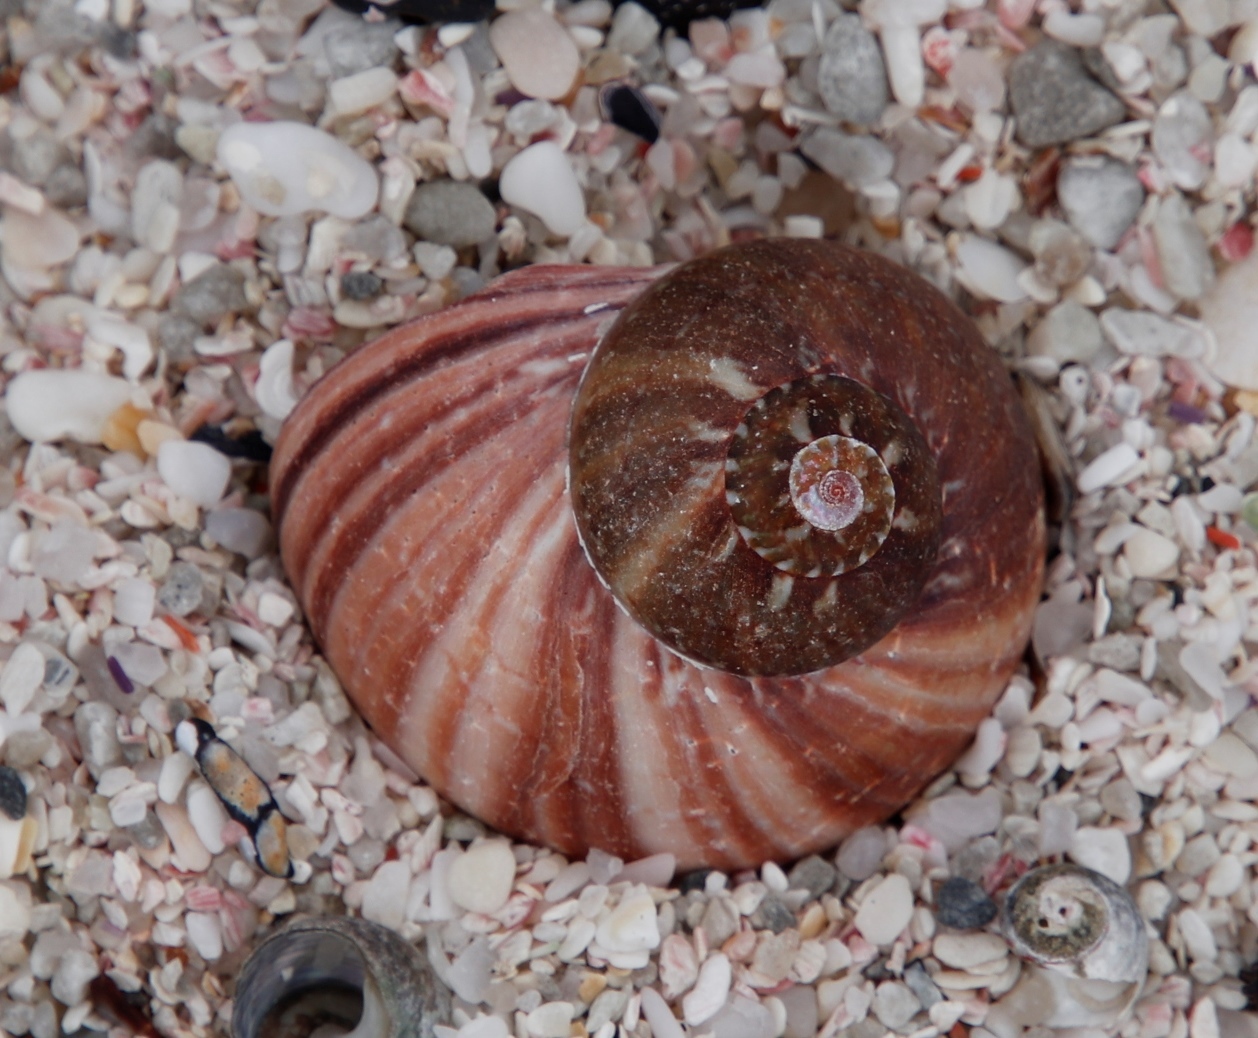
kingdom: Animalia
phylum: Mollusca
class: Gastropoda
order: Trochida
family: Turbinidae
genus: Turbo
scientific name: Turbo cidaris
